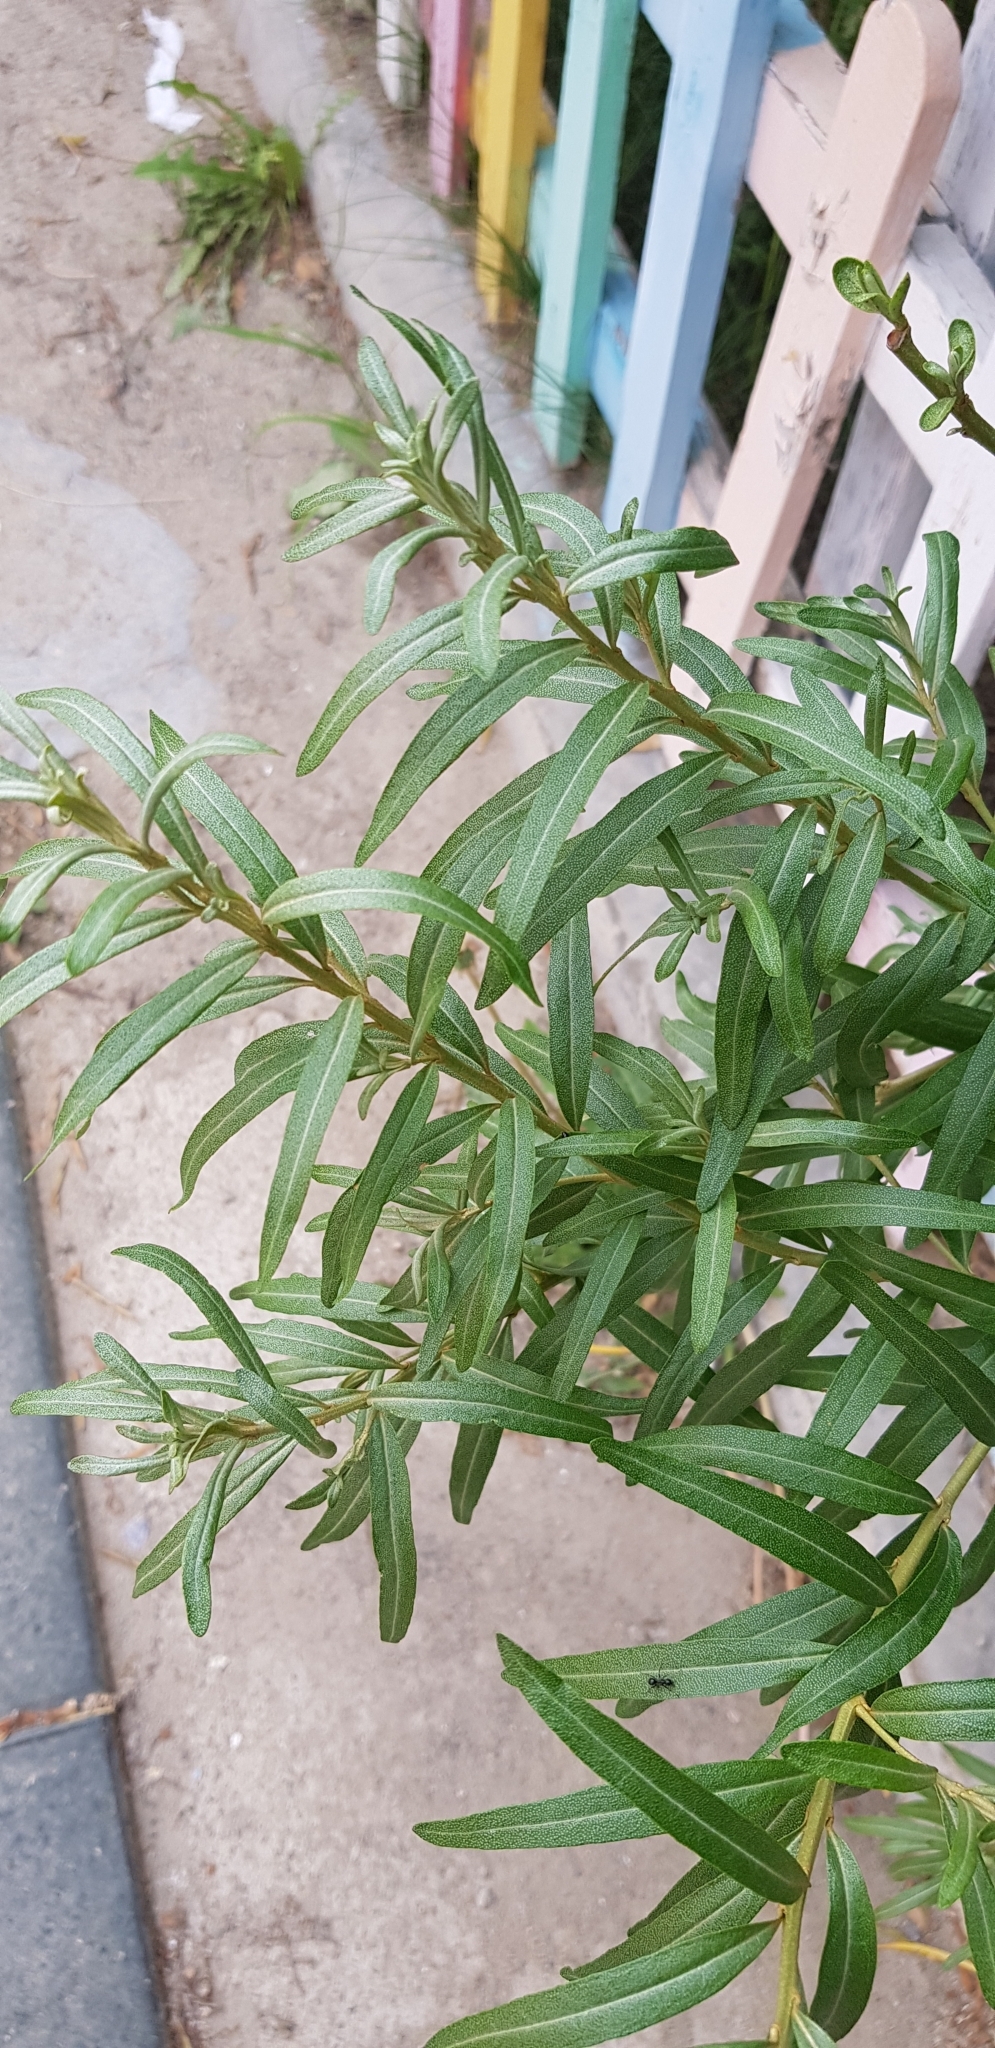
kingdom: Plantae
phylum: Tracheophyta
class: Magnoliopsida
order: Rosales
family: Elaeagnaceae
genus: Hippophae
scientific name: Hippophae rhamnoides
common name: Sea-buckthorn
